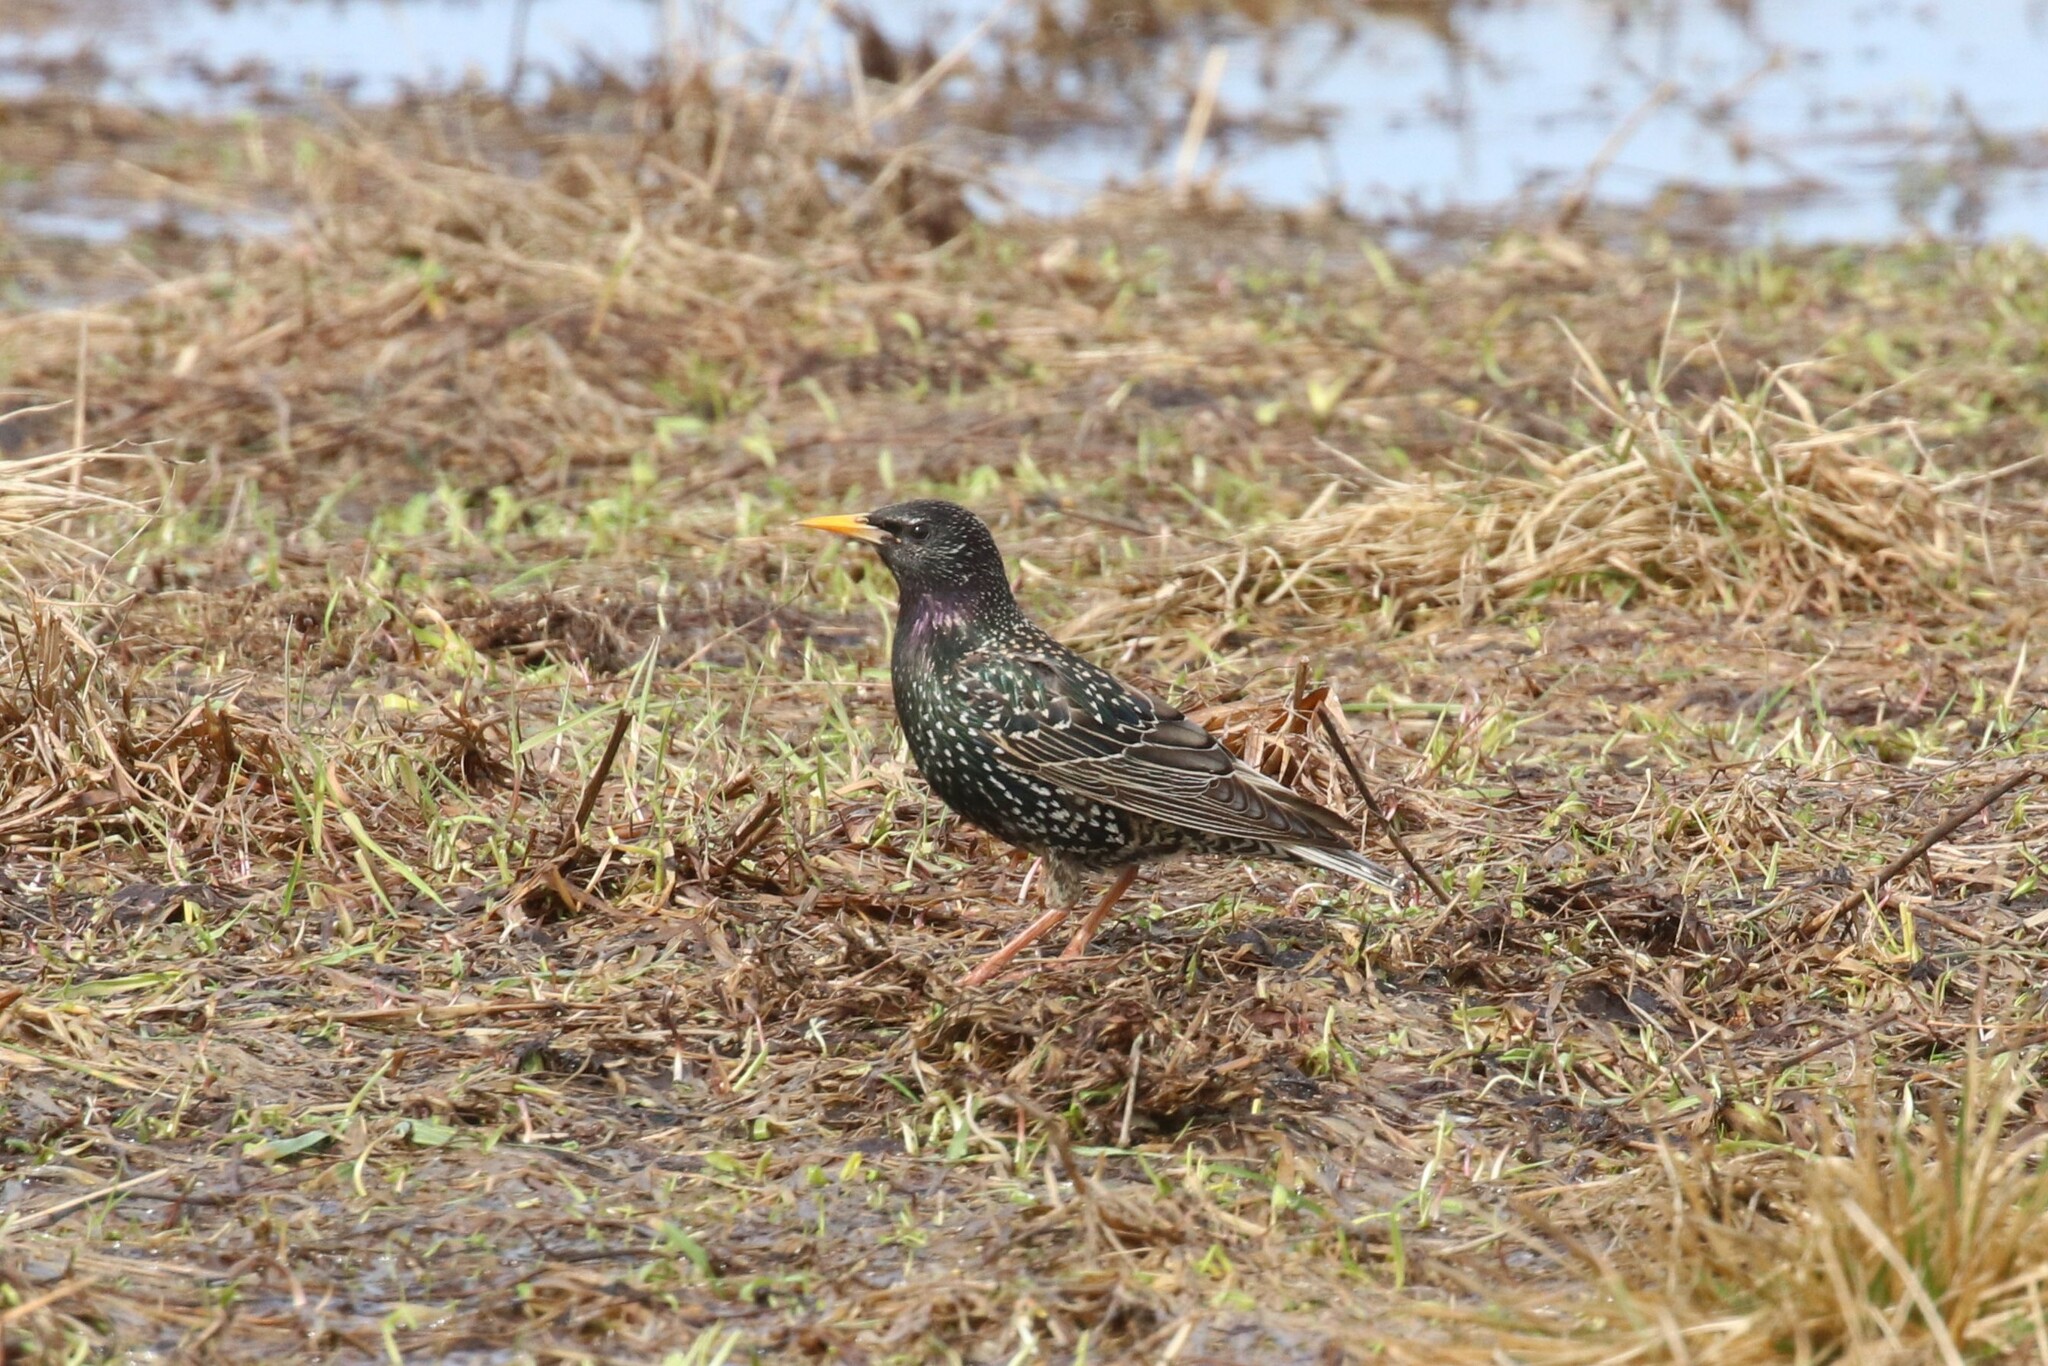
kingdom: Animalia
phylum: Chordata
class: Aves
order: Passeriformes
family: Sturnidae
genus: Sturnus
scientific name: Sturnus vulgaris
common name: Common starling
